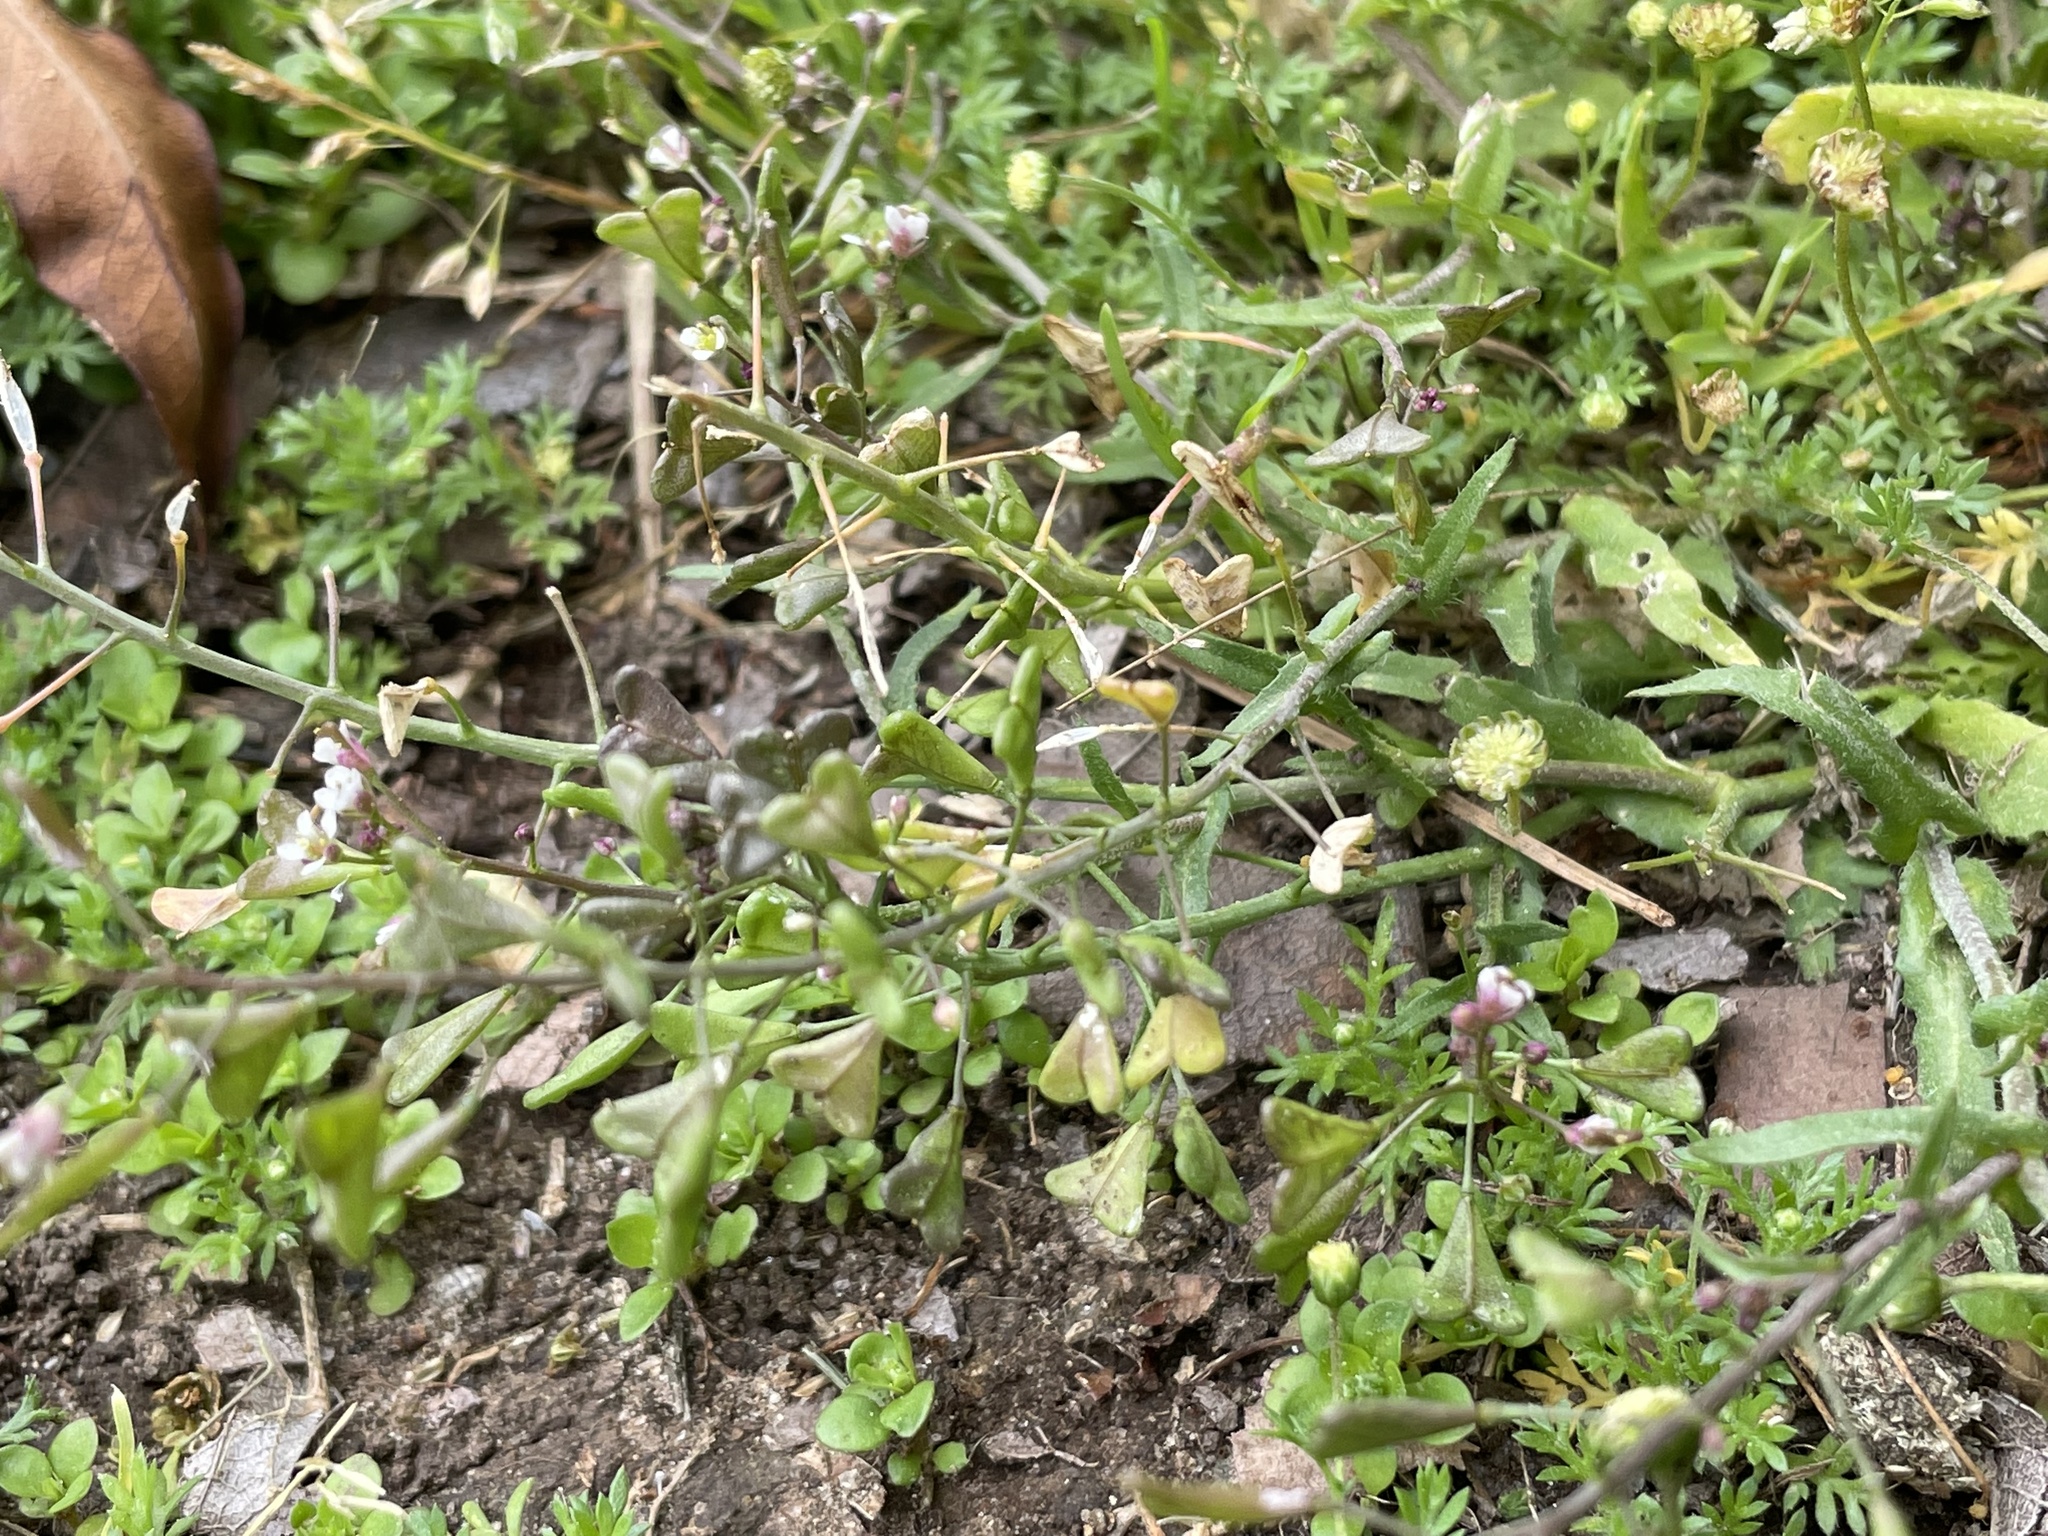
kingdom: Plantae
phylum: Tracheophyta
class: Magnoliopsida
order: Brassicales
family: Brassicaceae
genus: Capsella
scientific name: Capsella bursa-pastoris
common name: Shepherd's purse
